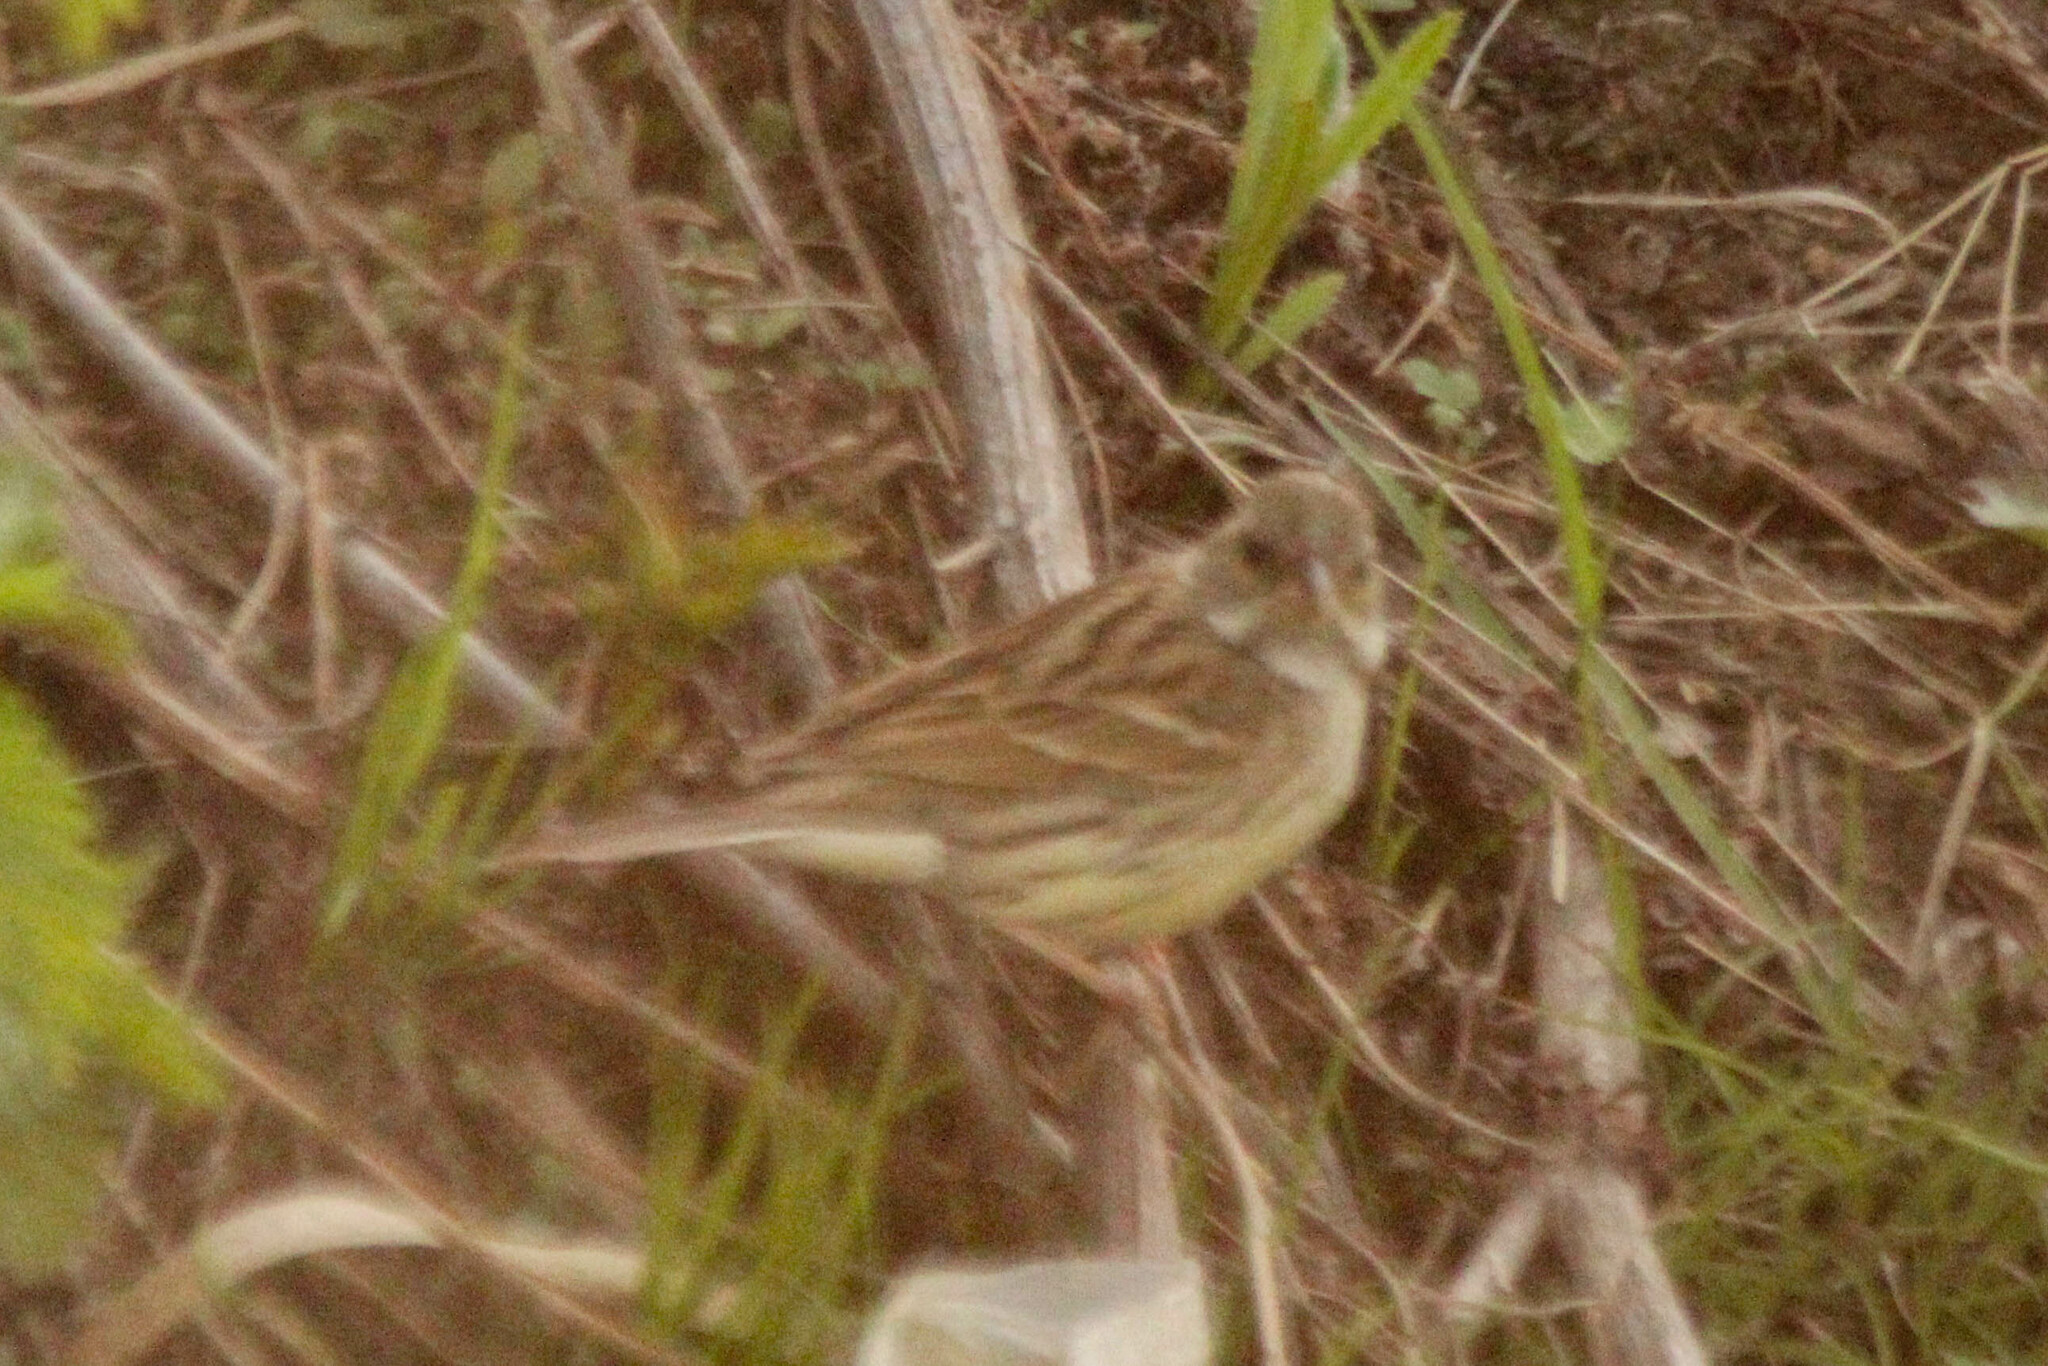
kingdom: Animalia
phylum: Chordata
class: Aves
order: Passeriformes
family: Emberizidae
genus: Emberiza
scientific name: Emberiza spodocephala
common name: Black-faced bunting
